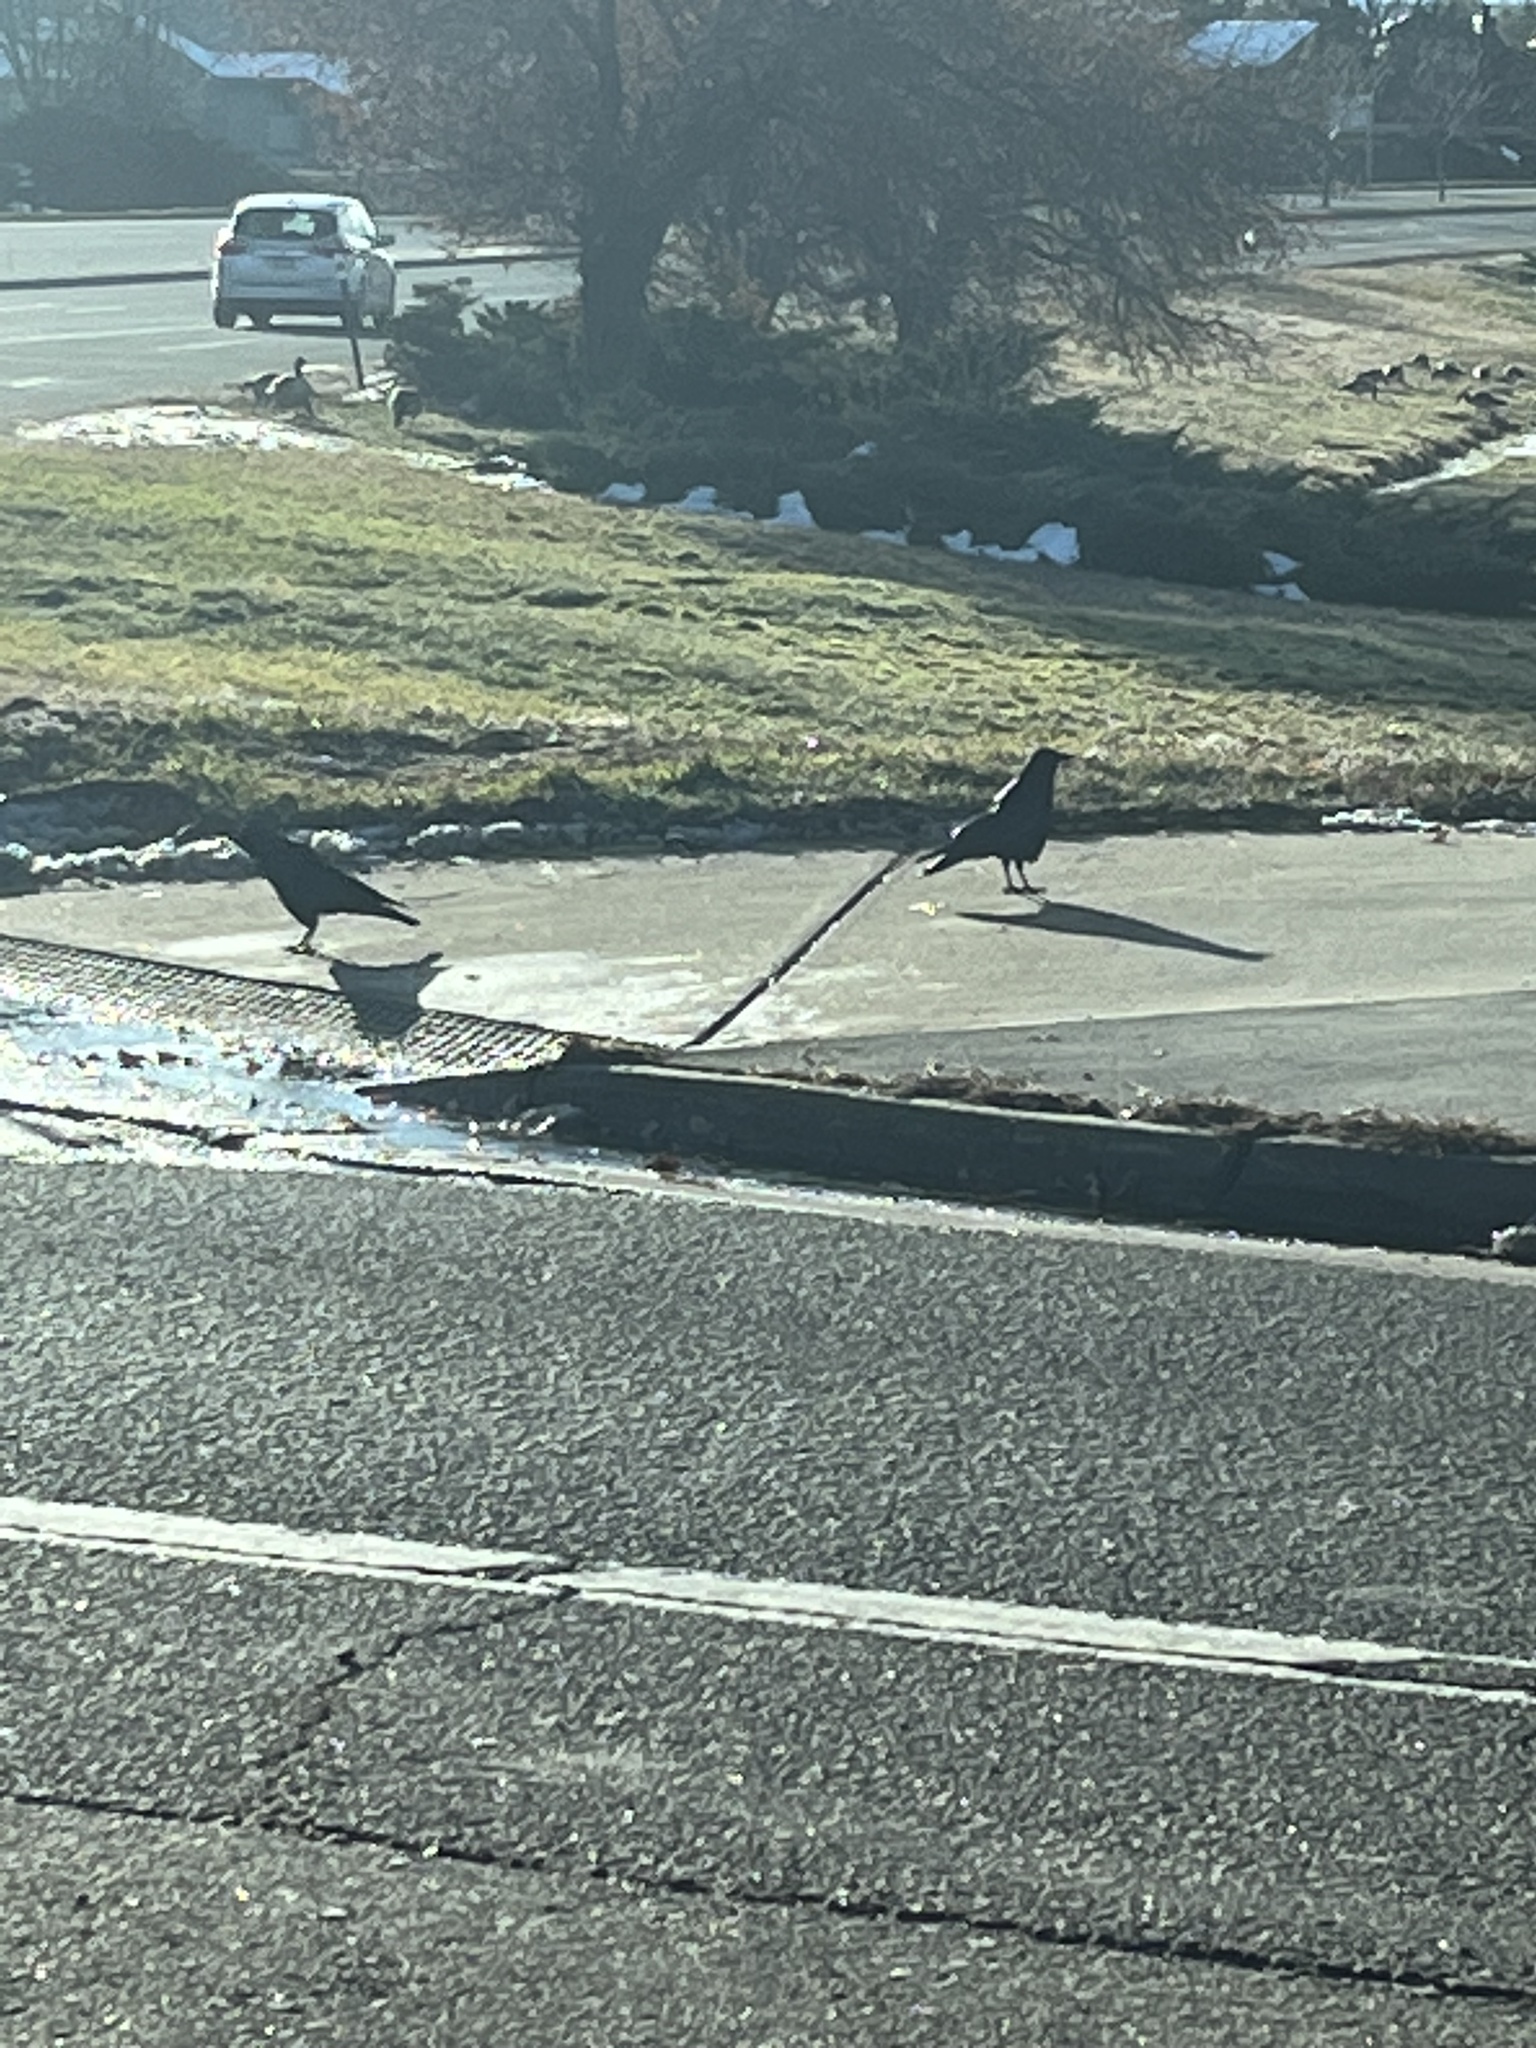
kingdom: Animalia
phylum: Chordata
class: Aves
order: Passeriformes
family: Corvidae
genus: Corvus
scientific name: Corvus brachyrhynchos
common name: American crow
